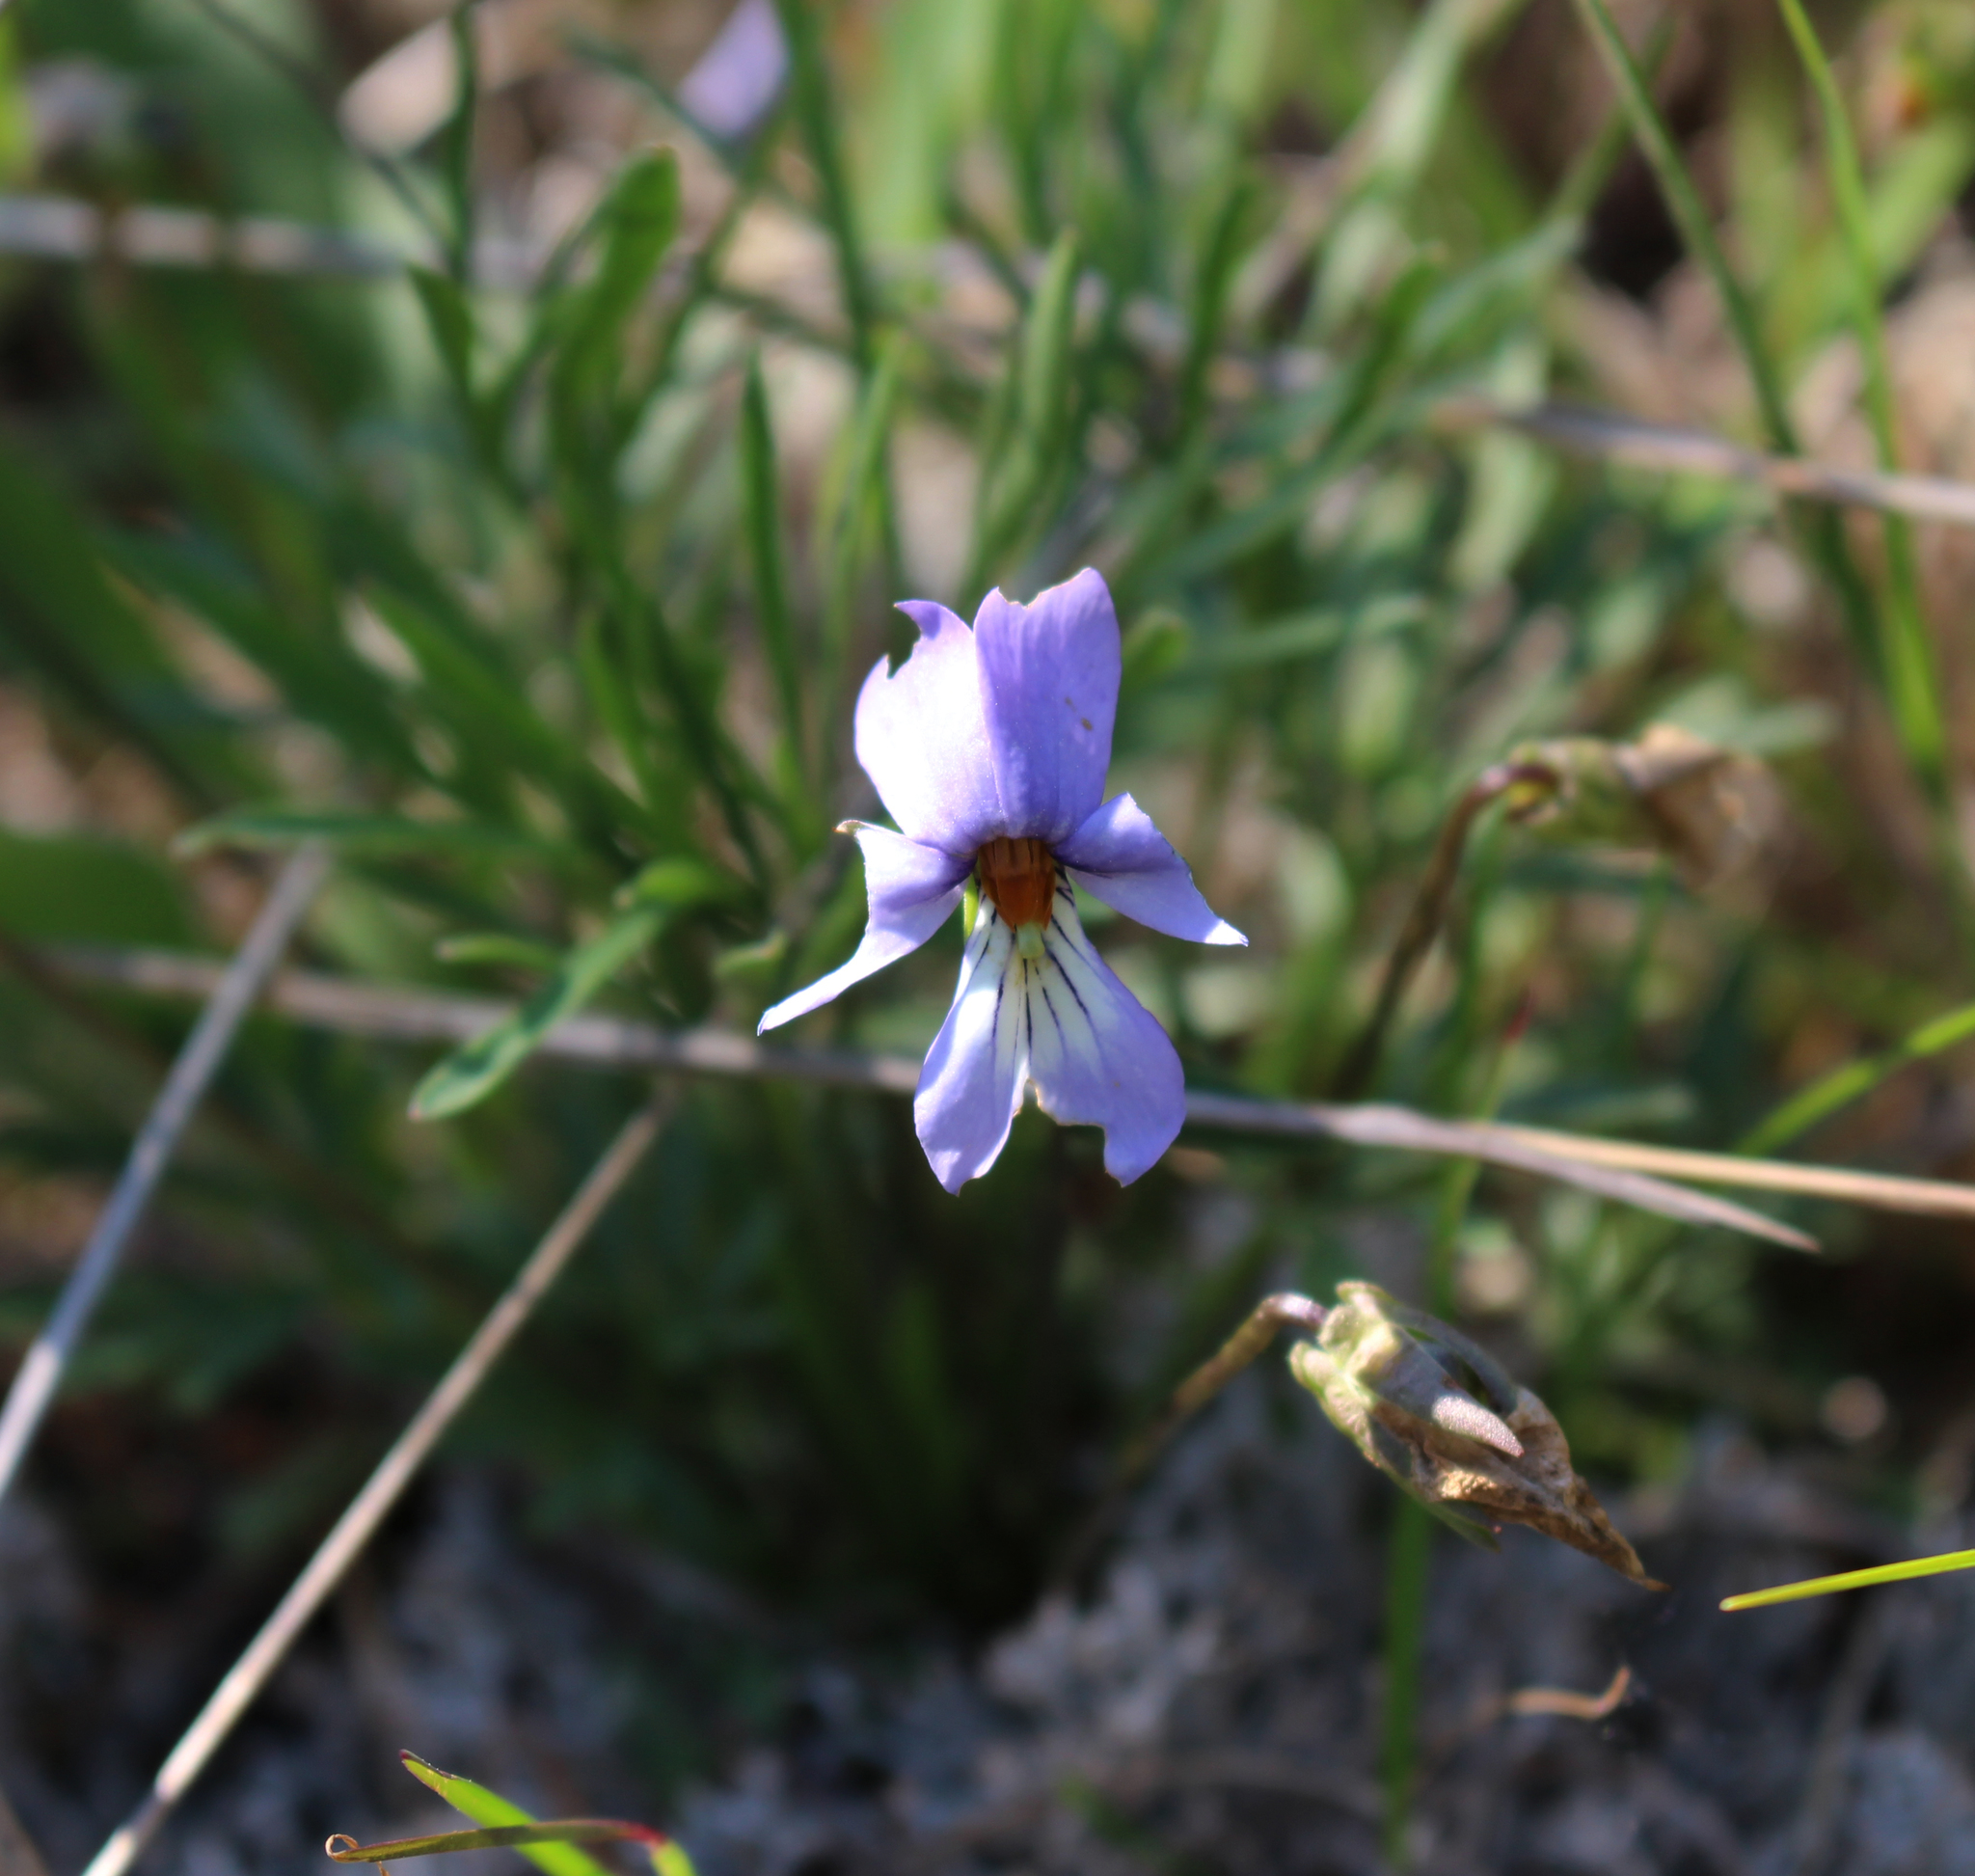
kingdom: Plantae
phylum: Tracheophyta
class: Magnoliopsida
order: Malpighiales
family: Violaceae
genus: Viola
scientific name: Viola pedata
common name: Pansy violet
